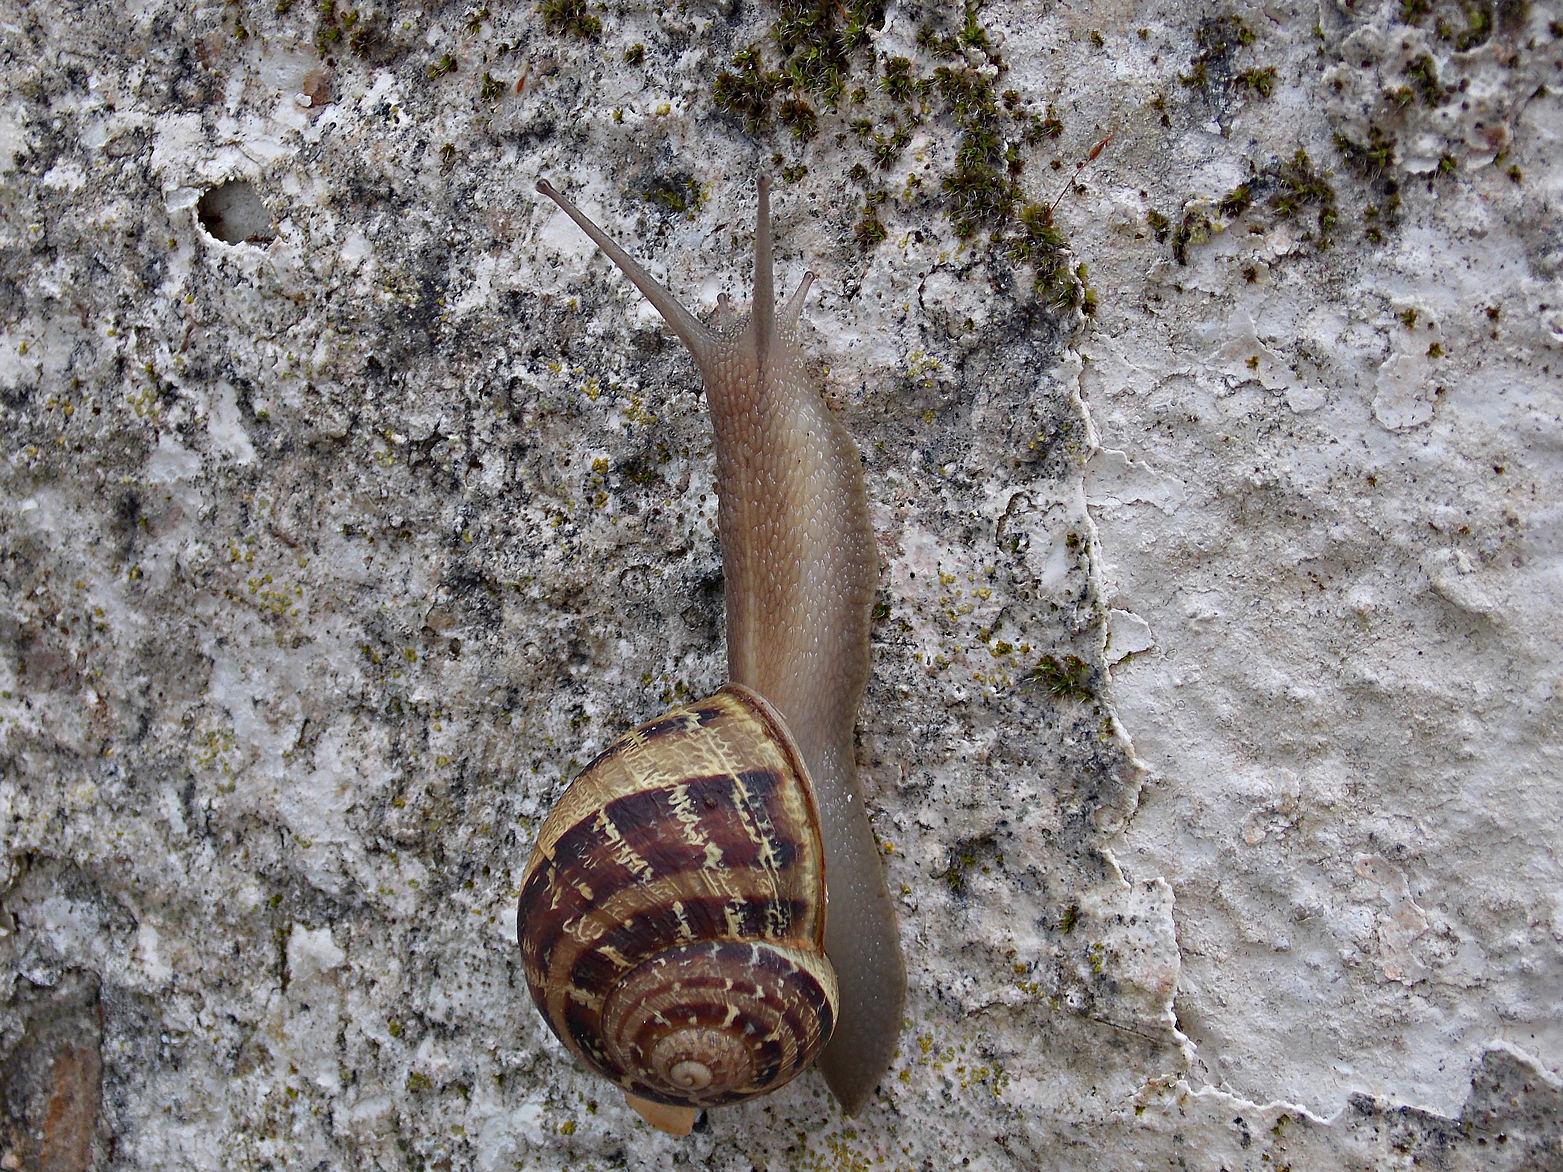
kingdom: Animalia
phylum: Mollusca
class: Gastropoda
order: Stylommatophora
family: Helicidae
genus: Cornu
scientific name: Cornu aspersum
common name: Brown garden snail
